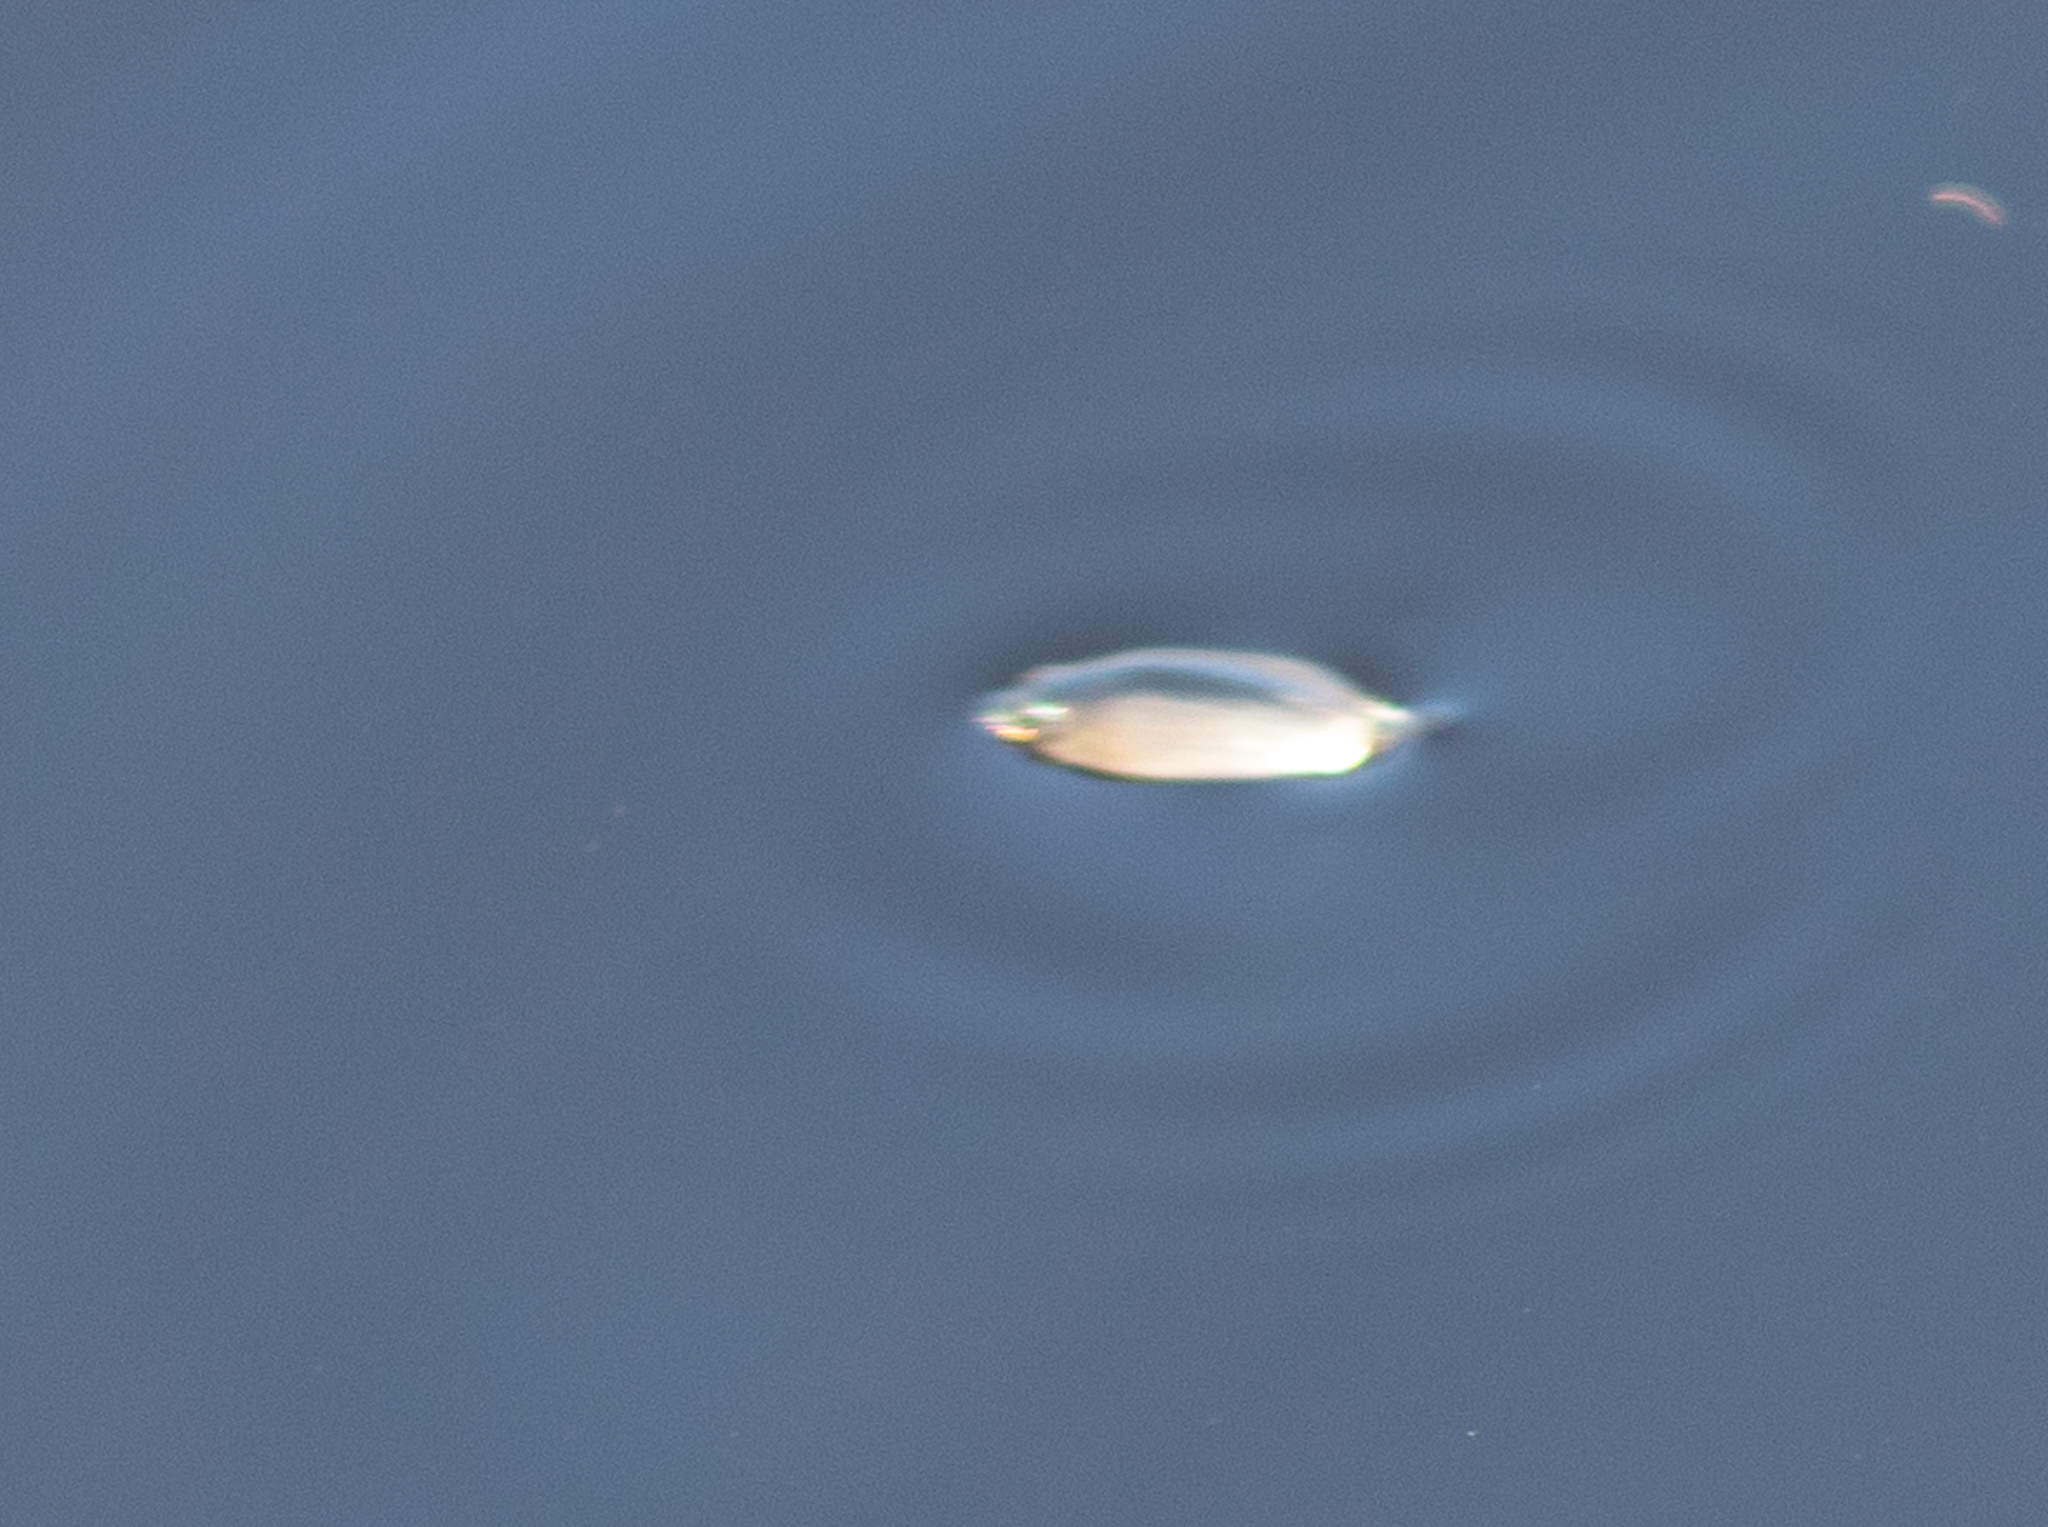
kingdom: Animalia
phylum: Arthropoda
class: Insecta
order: Coleoptera
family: Gyrinidae
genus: Dineutus
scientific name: Dineutus
